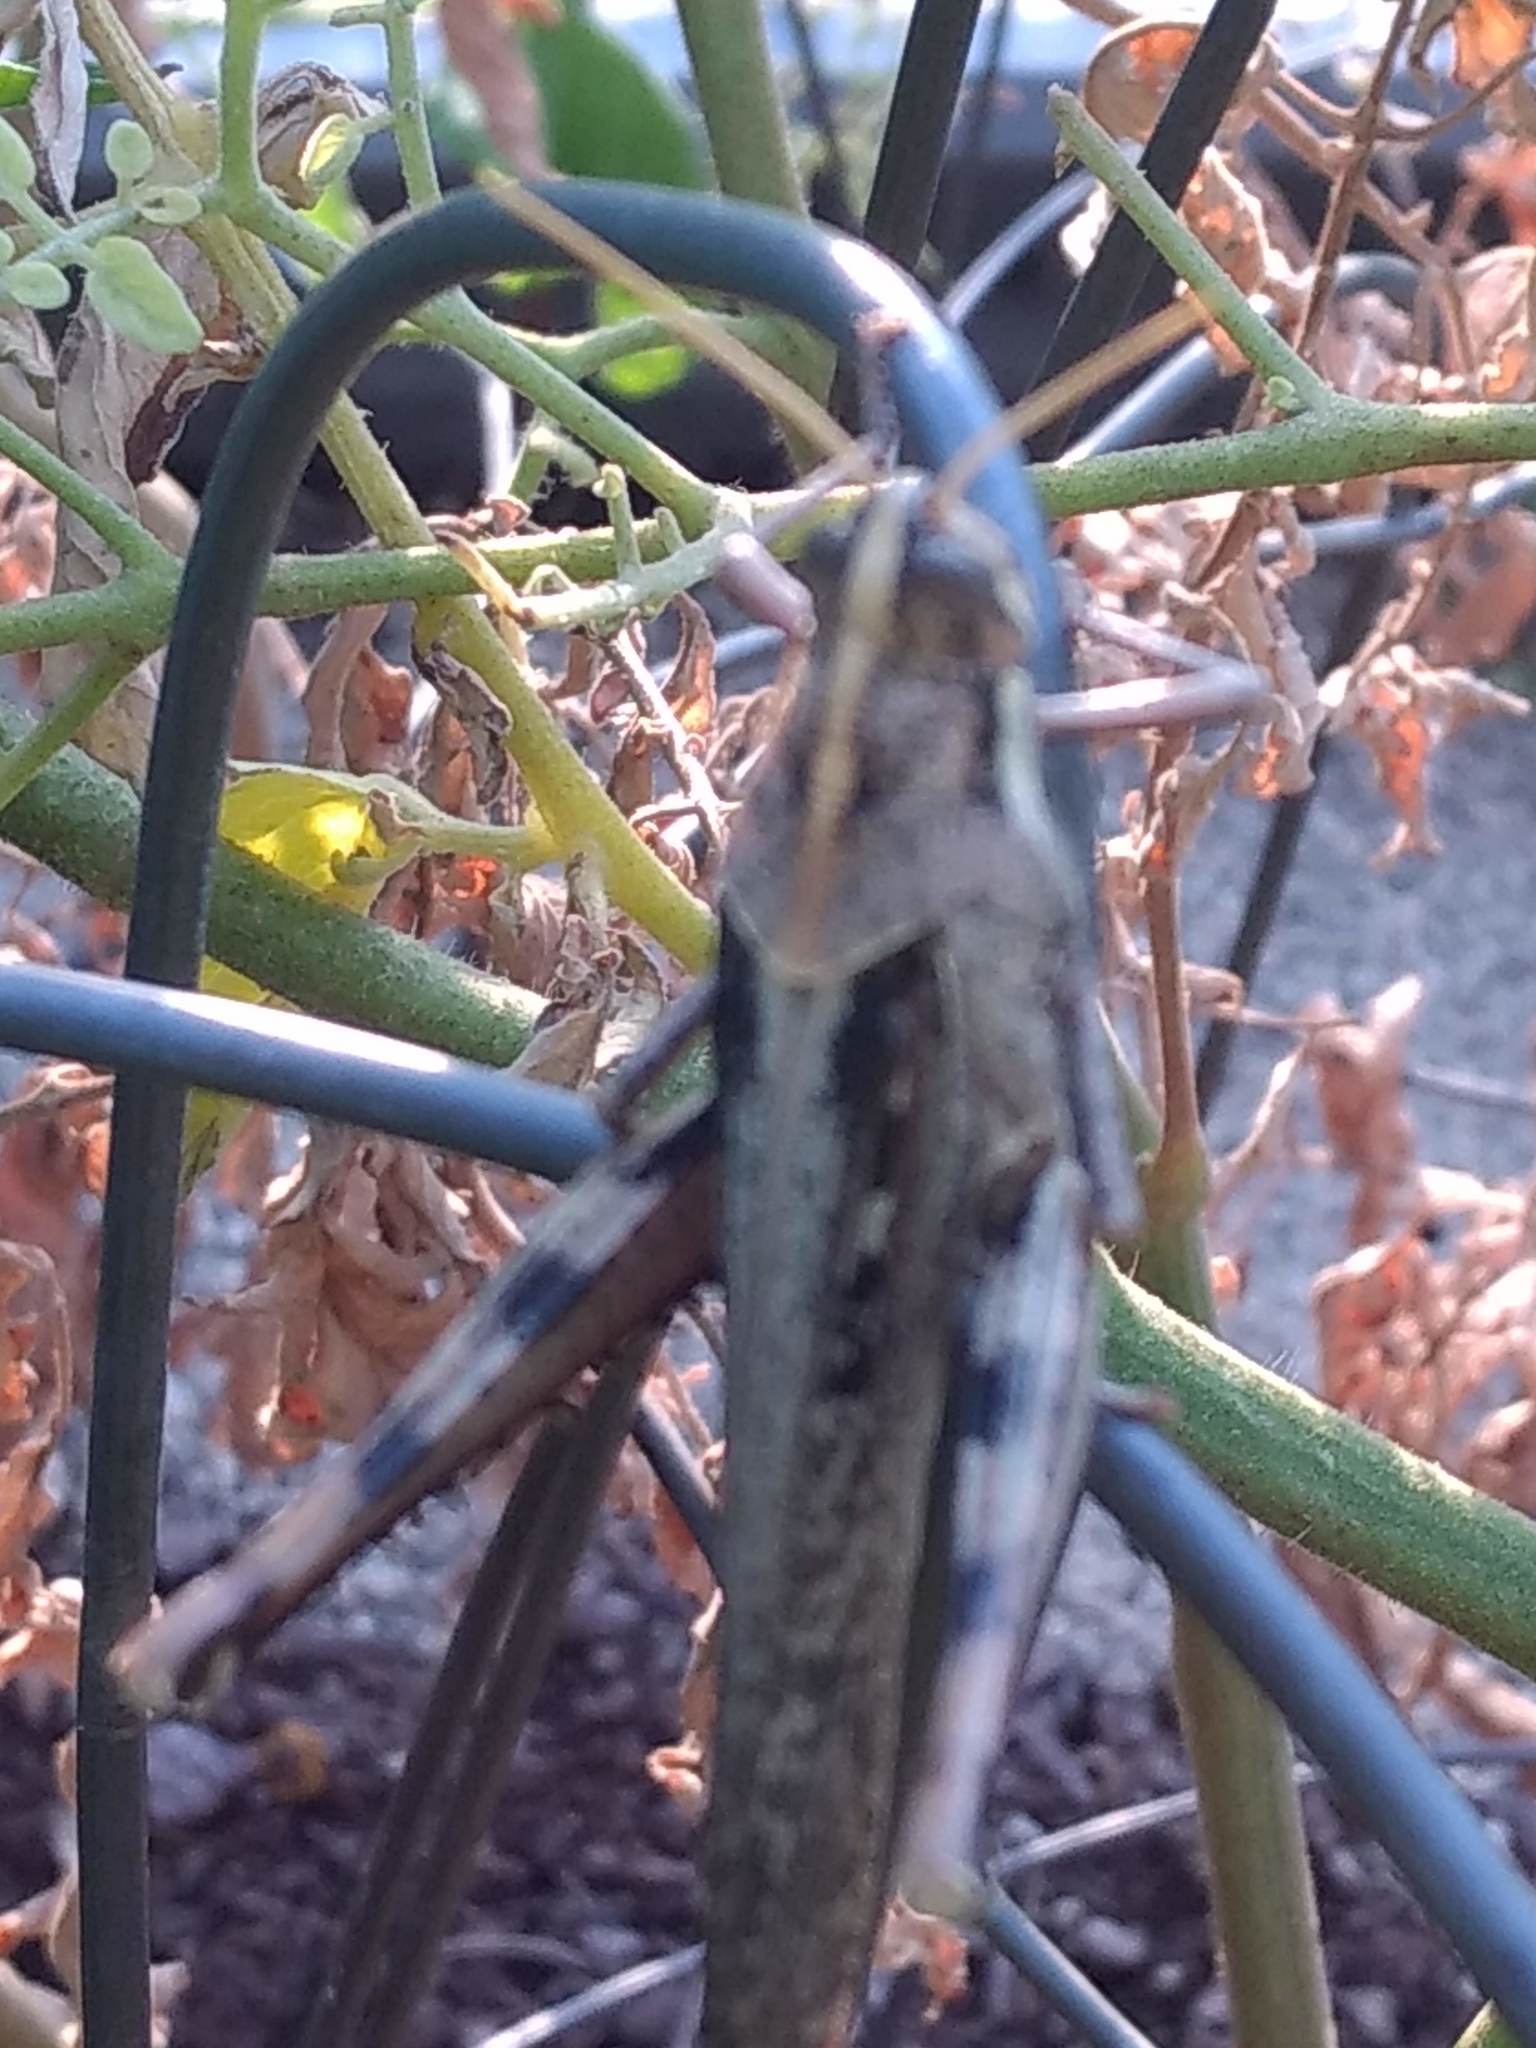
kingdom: Animalia
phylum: Arthropoda
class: Insecta
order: Orthoptera
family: Acrididae
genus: Schistocerca
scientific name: Schistocerca nitens
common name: Vagrant grasshopper
